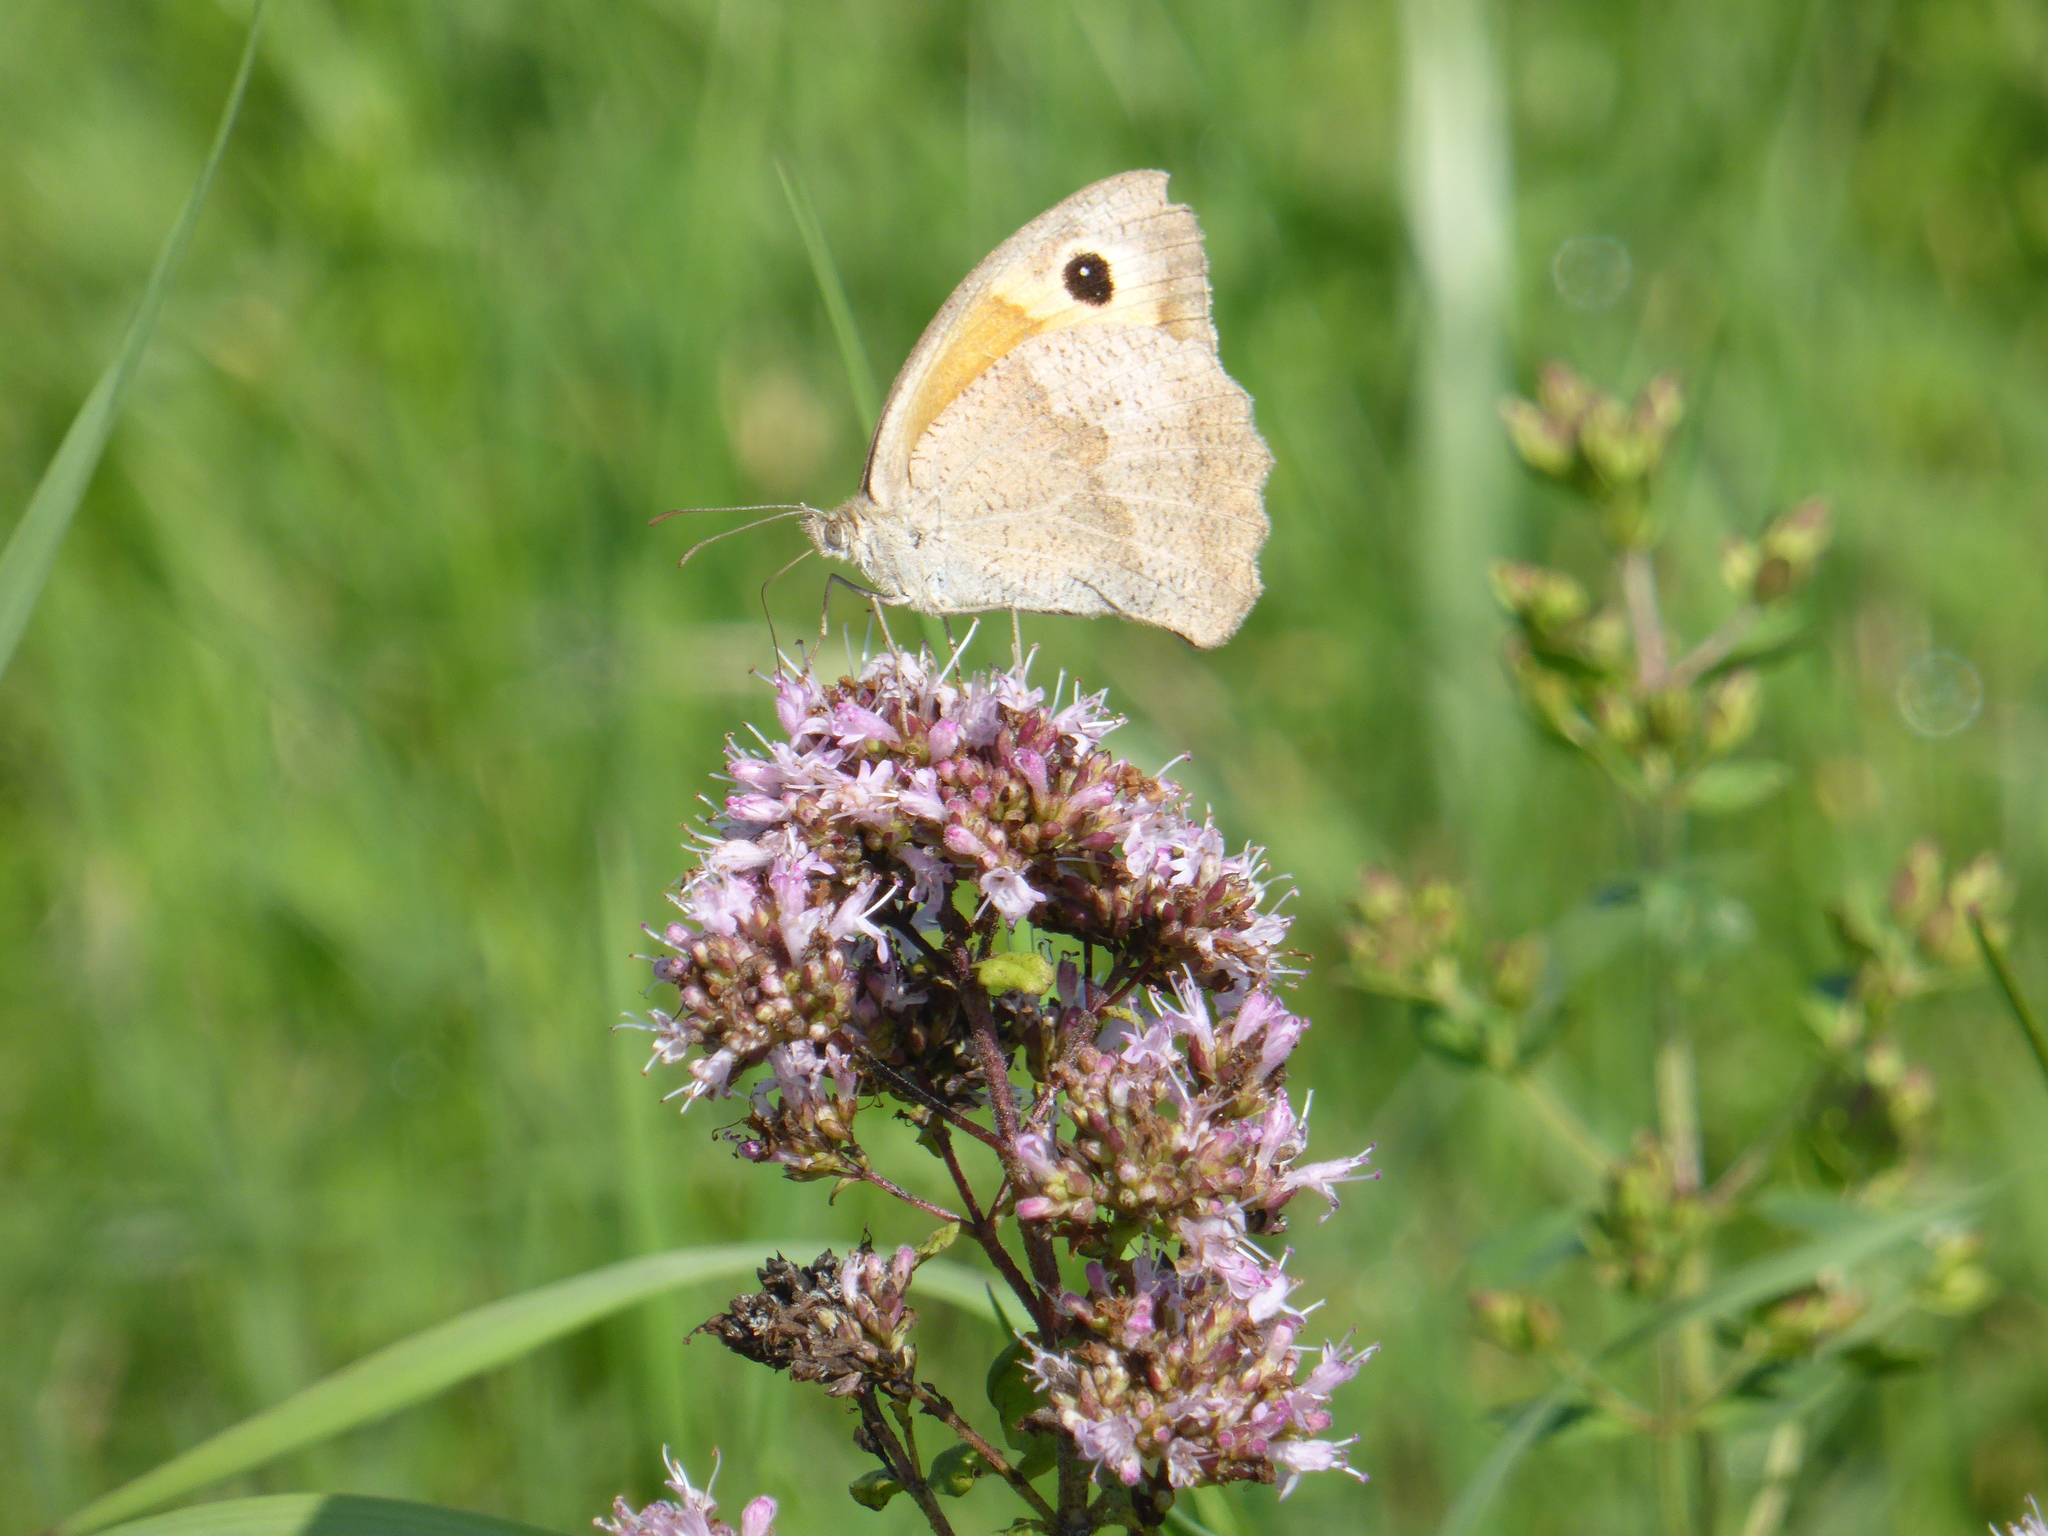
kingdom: Animalia
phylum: Arthropoda
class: Insecta
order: Lepidoptera
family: Nymphalidae
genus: Maniola
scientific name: Maniola jurtina
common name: Meadow brown
